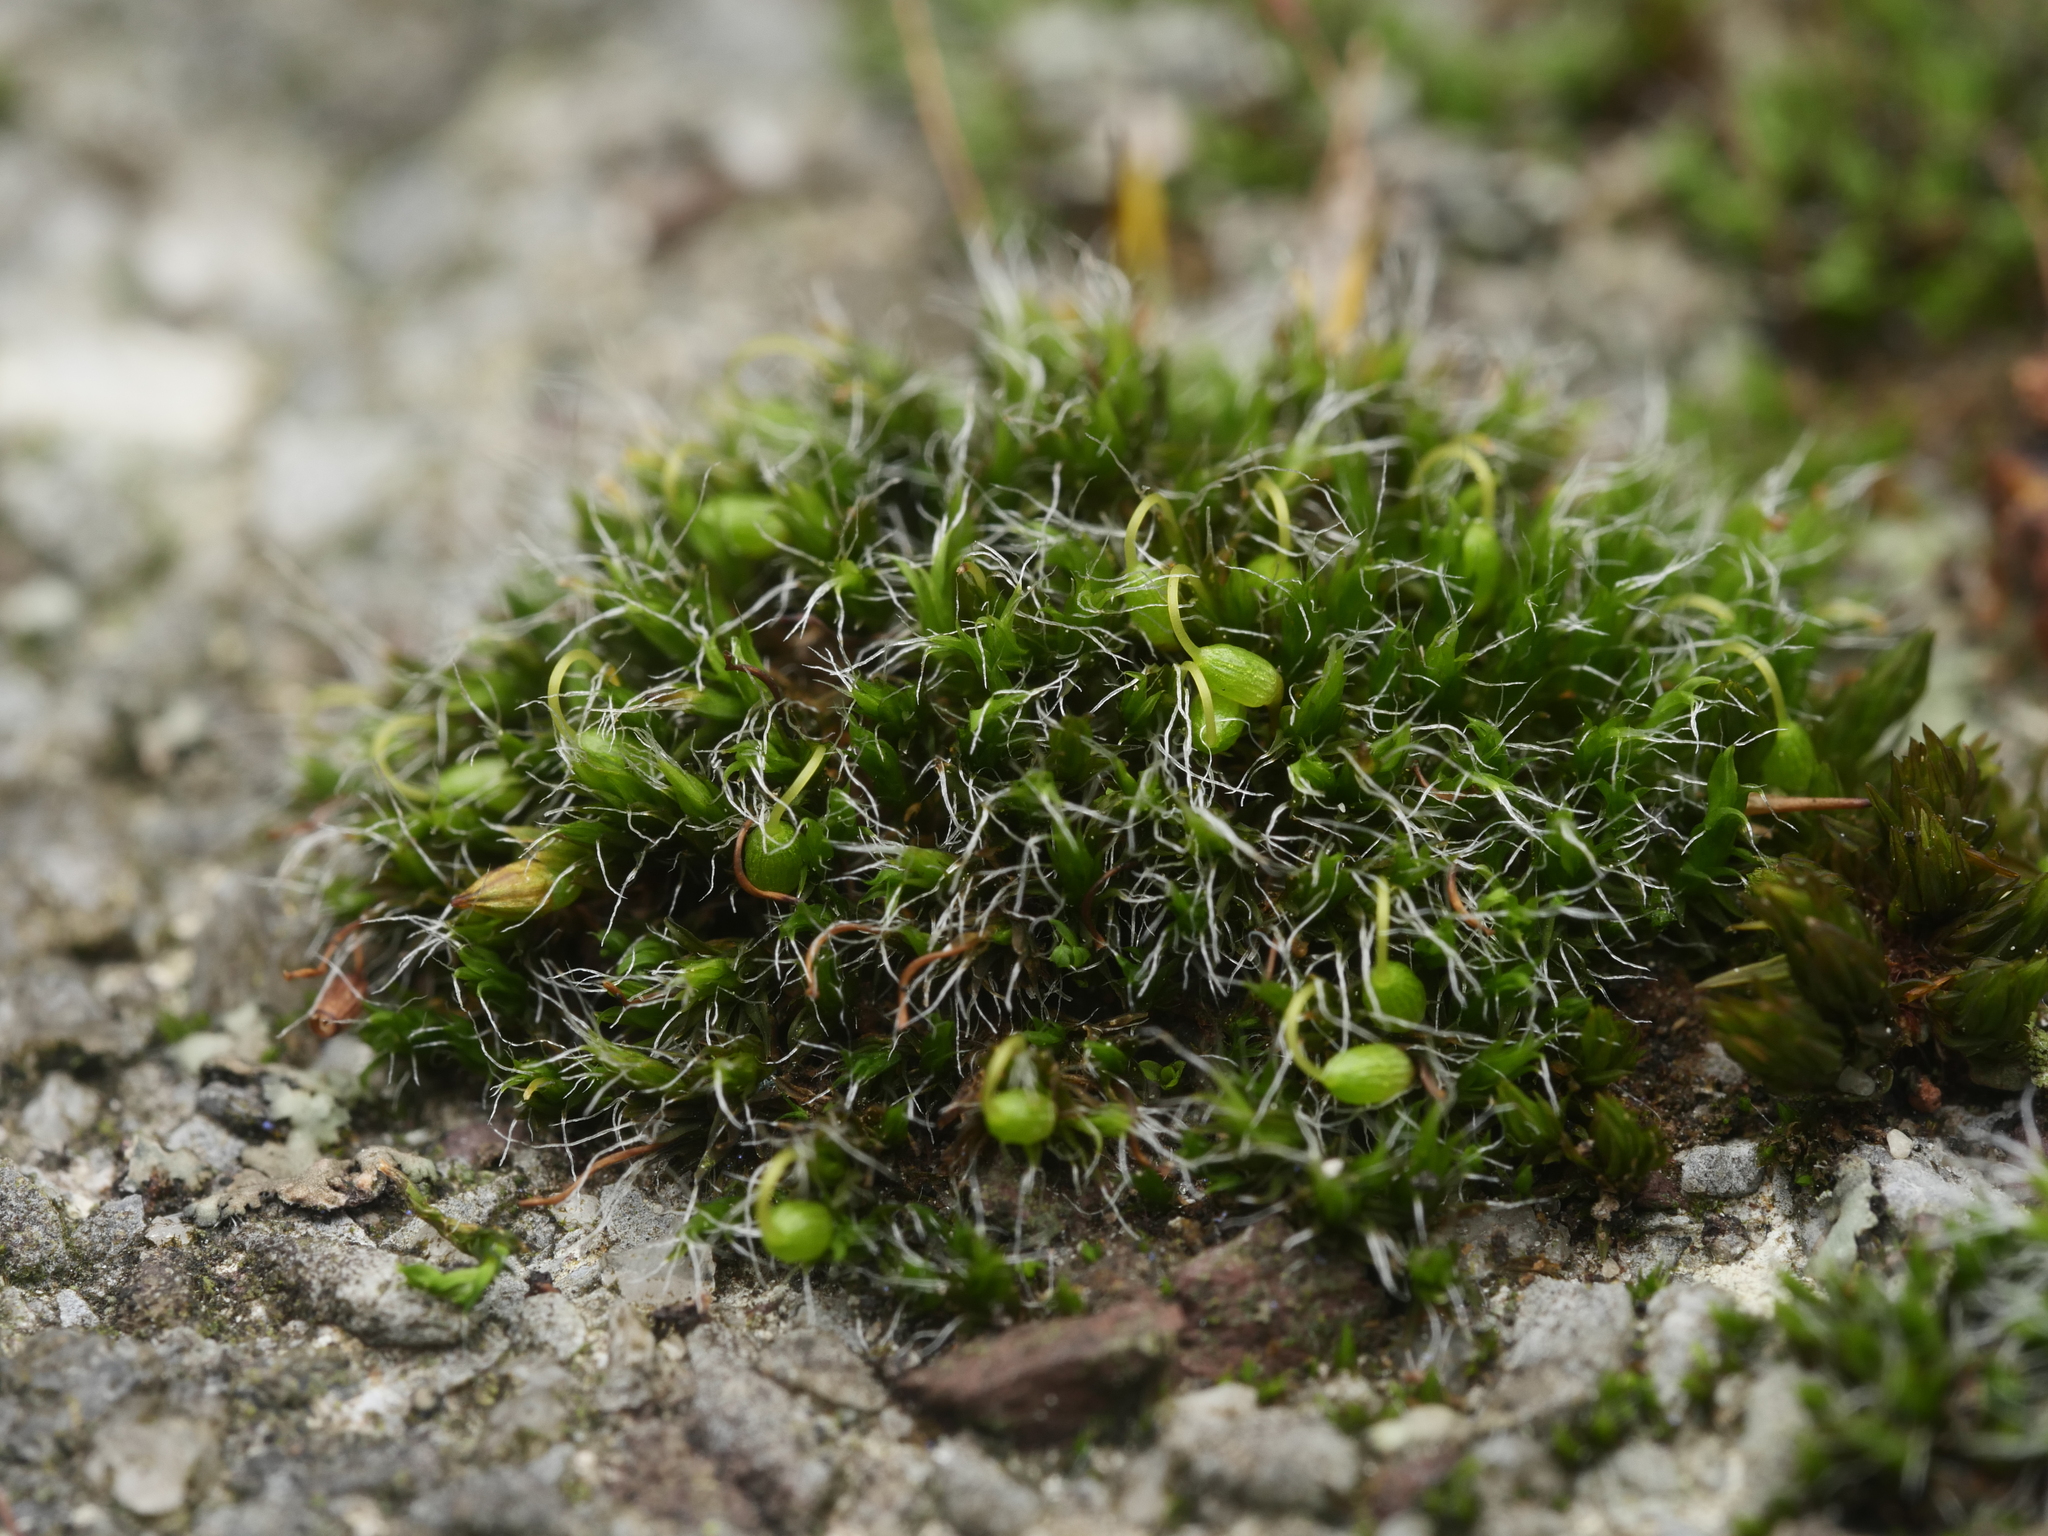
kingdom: Plantae
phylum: Bryophyta
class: Bryopsida
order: Grimmiales
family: Grimmiaceae
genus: Grimmia
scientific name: Grimmia pulvinata
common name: Grey-cushioned grimmia
